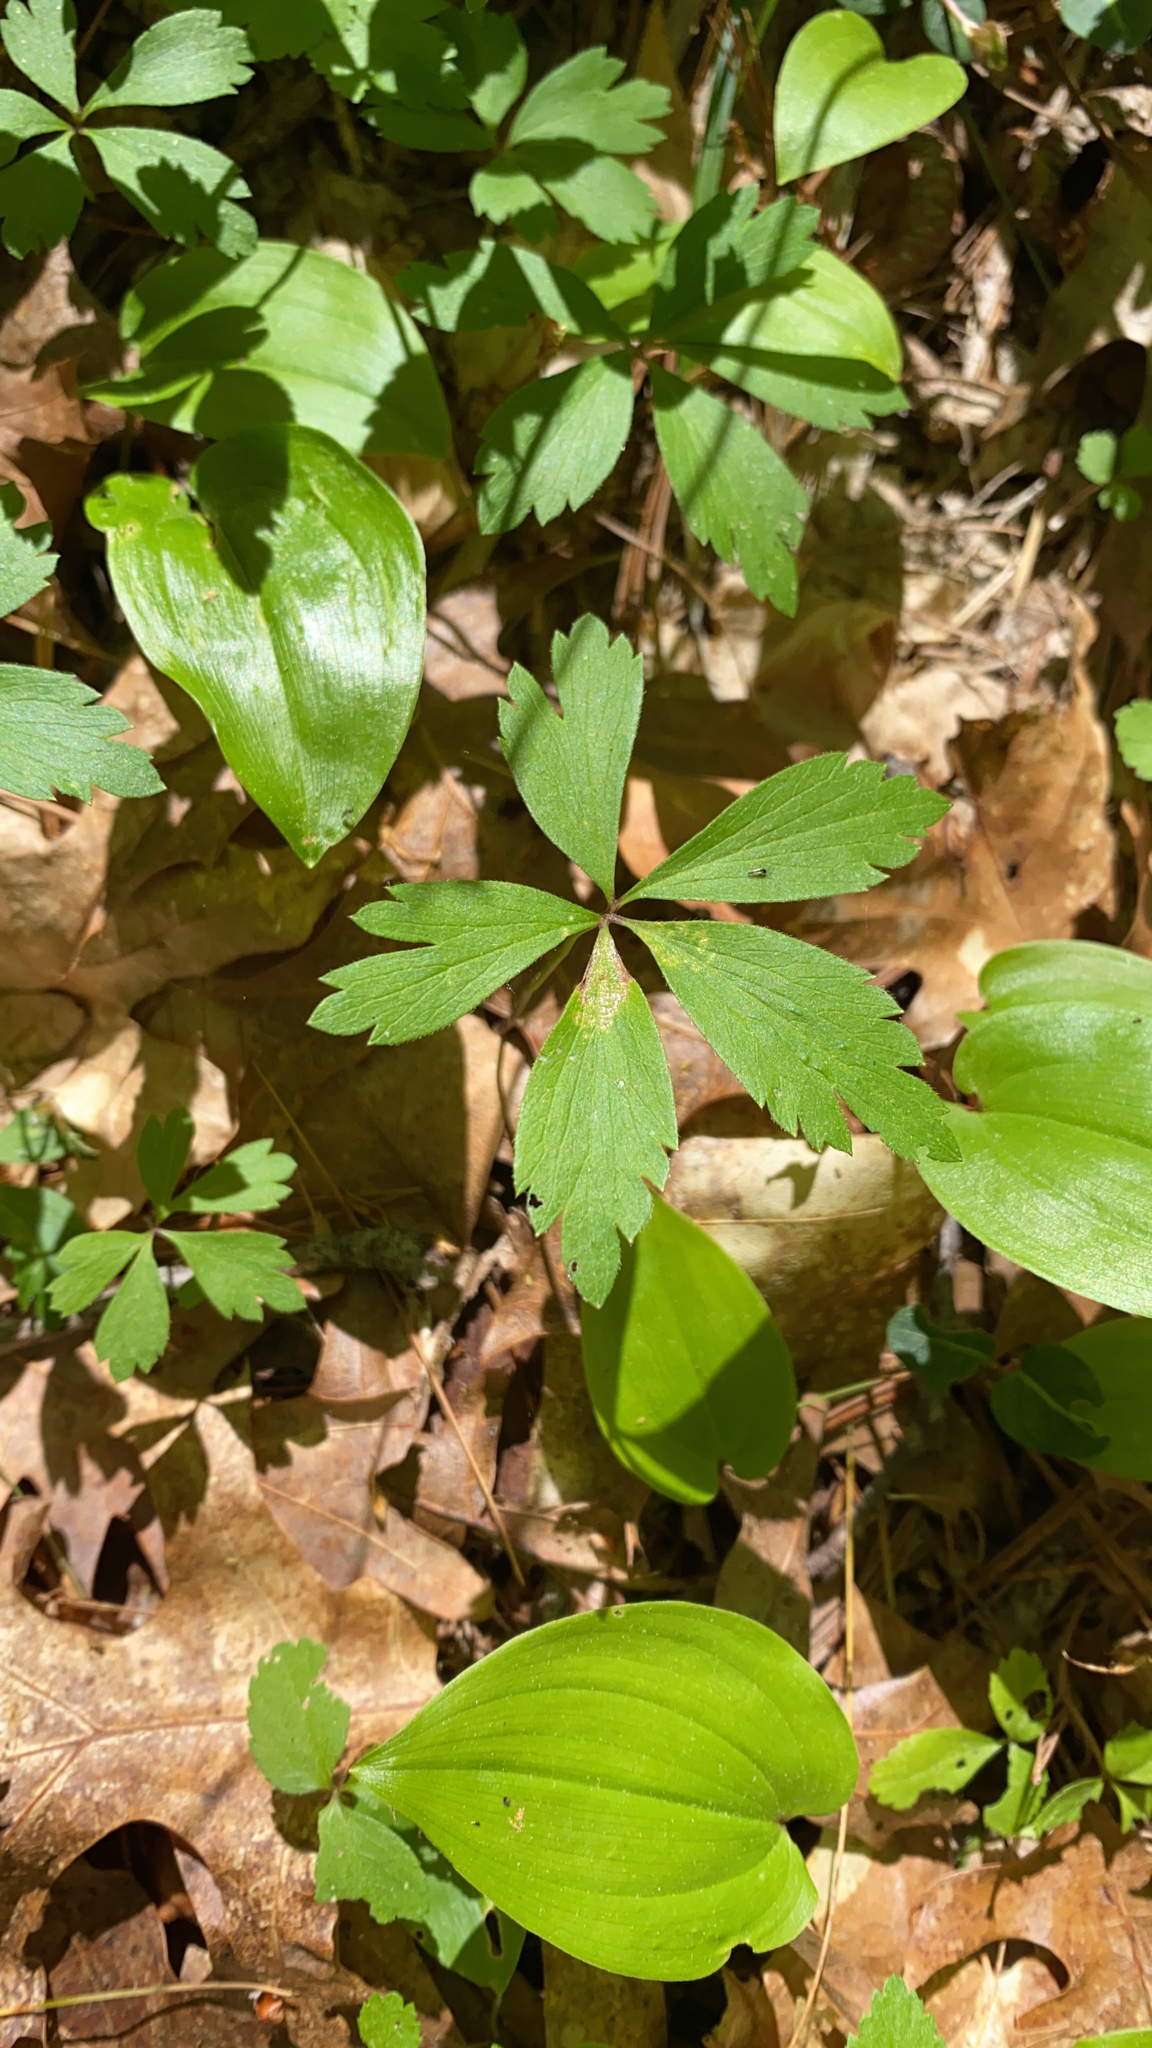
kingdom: Plantae
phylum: Tracheophyta
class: Magnoliopsida
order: Ranunculales
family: Ranunculaceae
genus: Anemone
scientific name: Anemone quinquefolia
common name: Wood anemone
